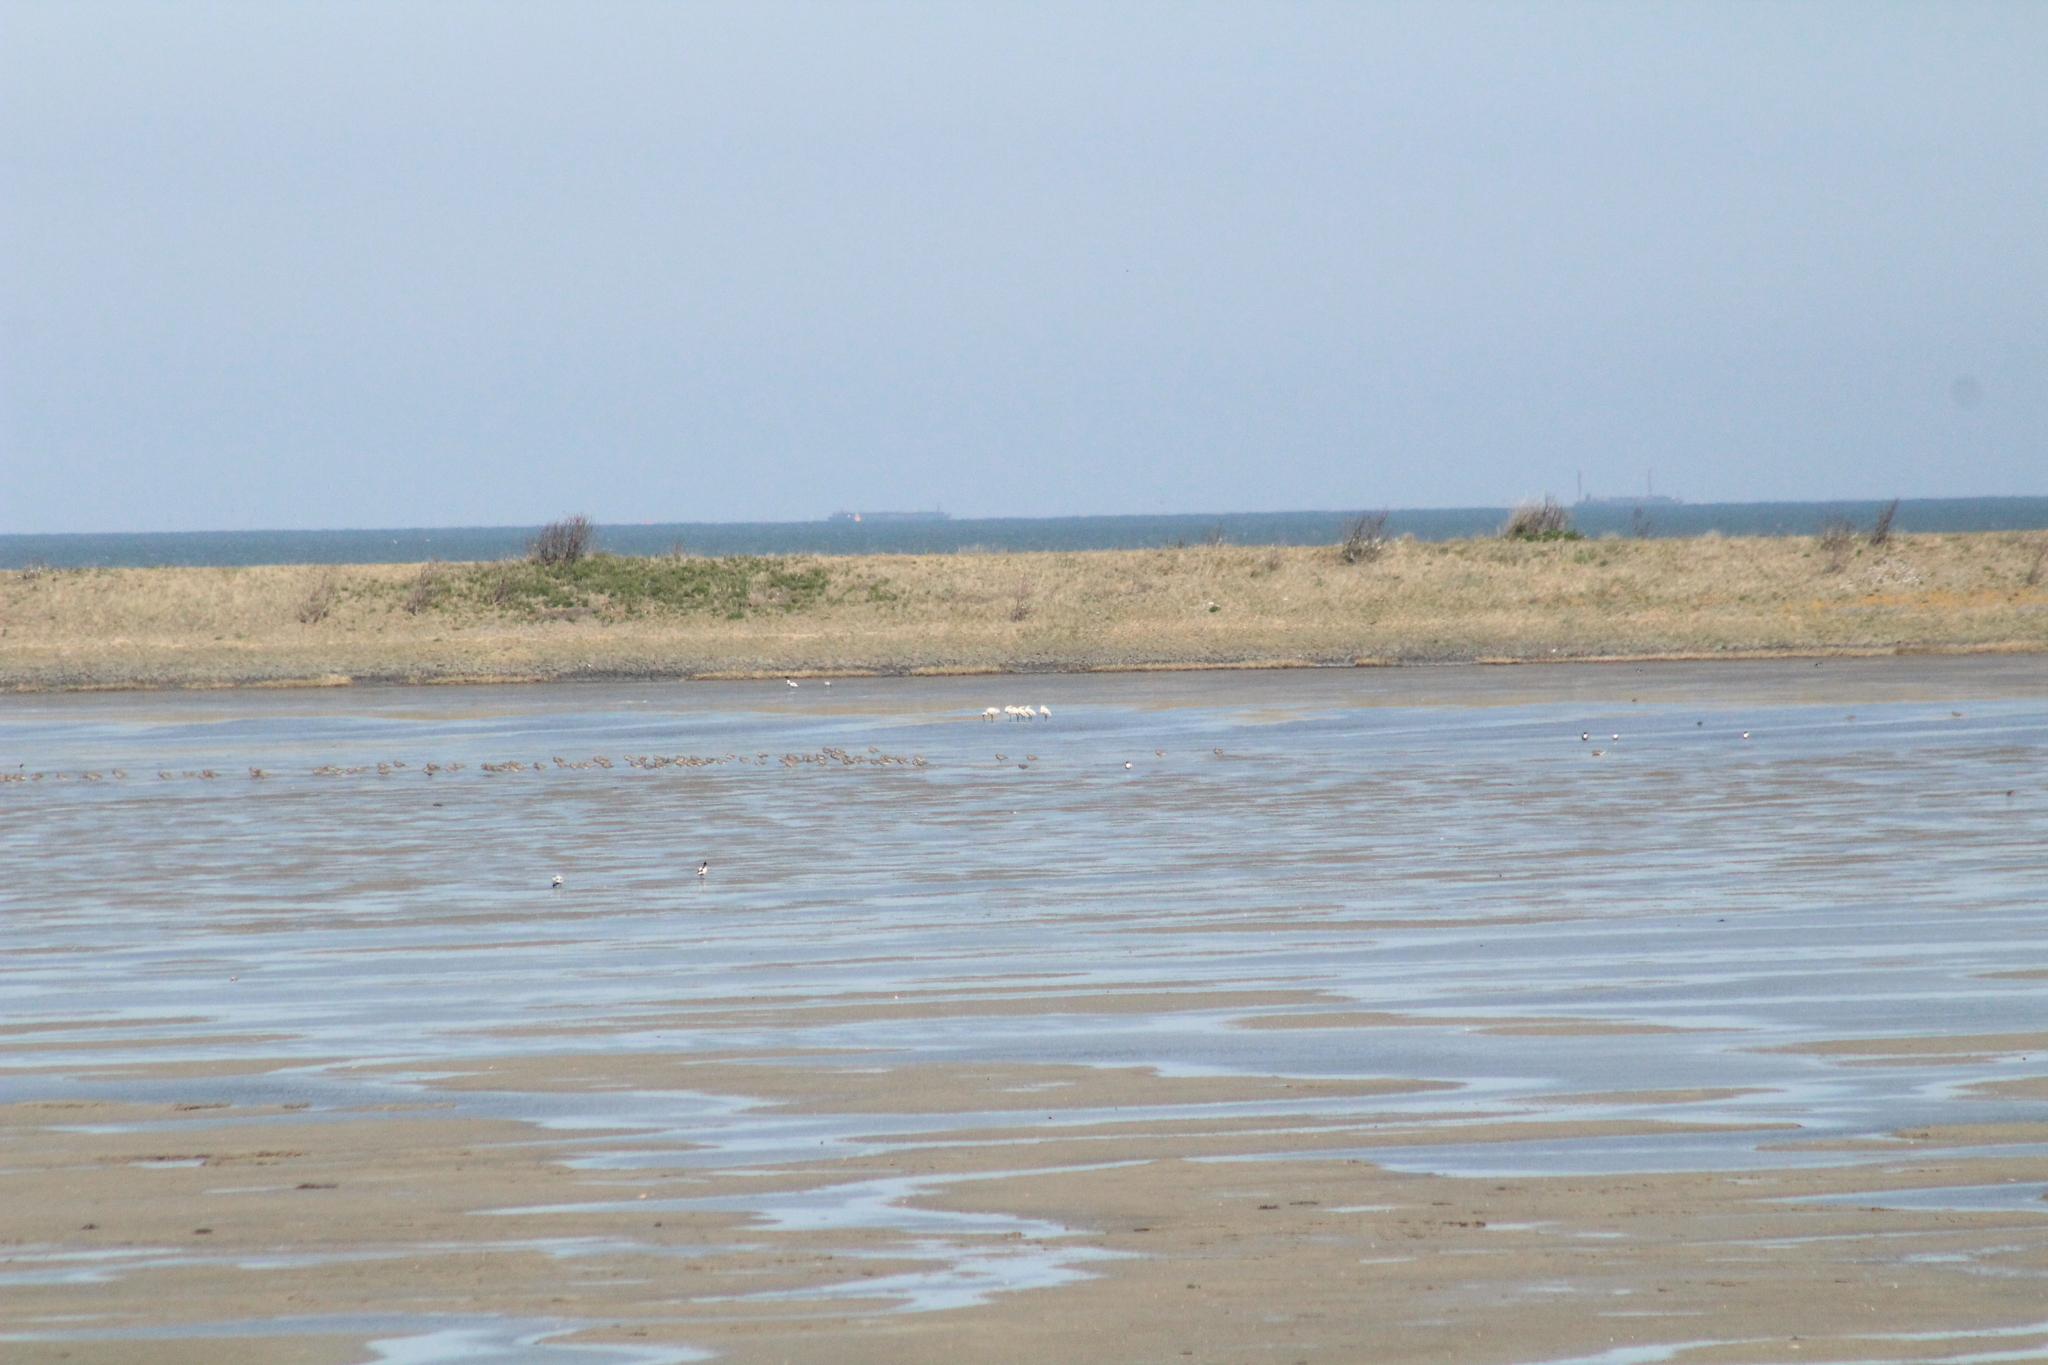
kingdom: Animalia
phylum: Chordata
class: Aves
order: Pelecaniformes
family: Threskiornithidae
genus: Platalea
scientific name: Platalea leucorodia
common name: Eurasian spoonbill
